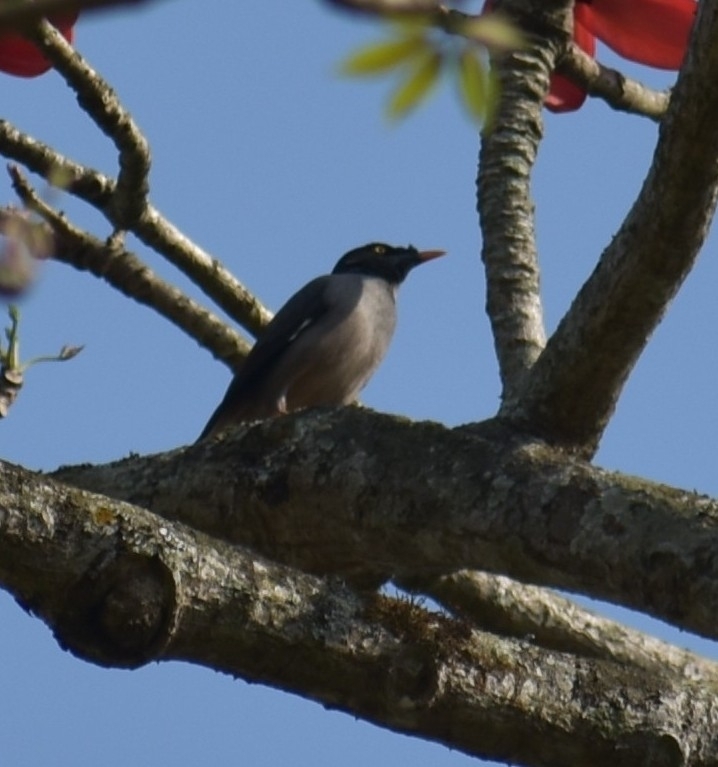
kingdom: Animalia
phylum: Chordata
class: Aves
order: Passeriformes
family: Sturnidae
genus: Acridotheres
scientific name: Acridotheres fuscus
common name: Jungle myna
